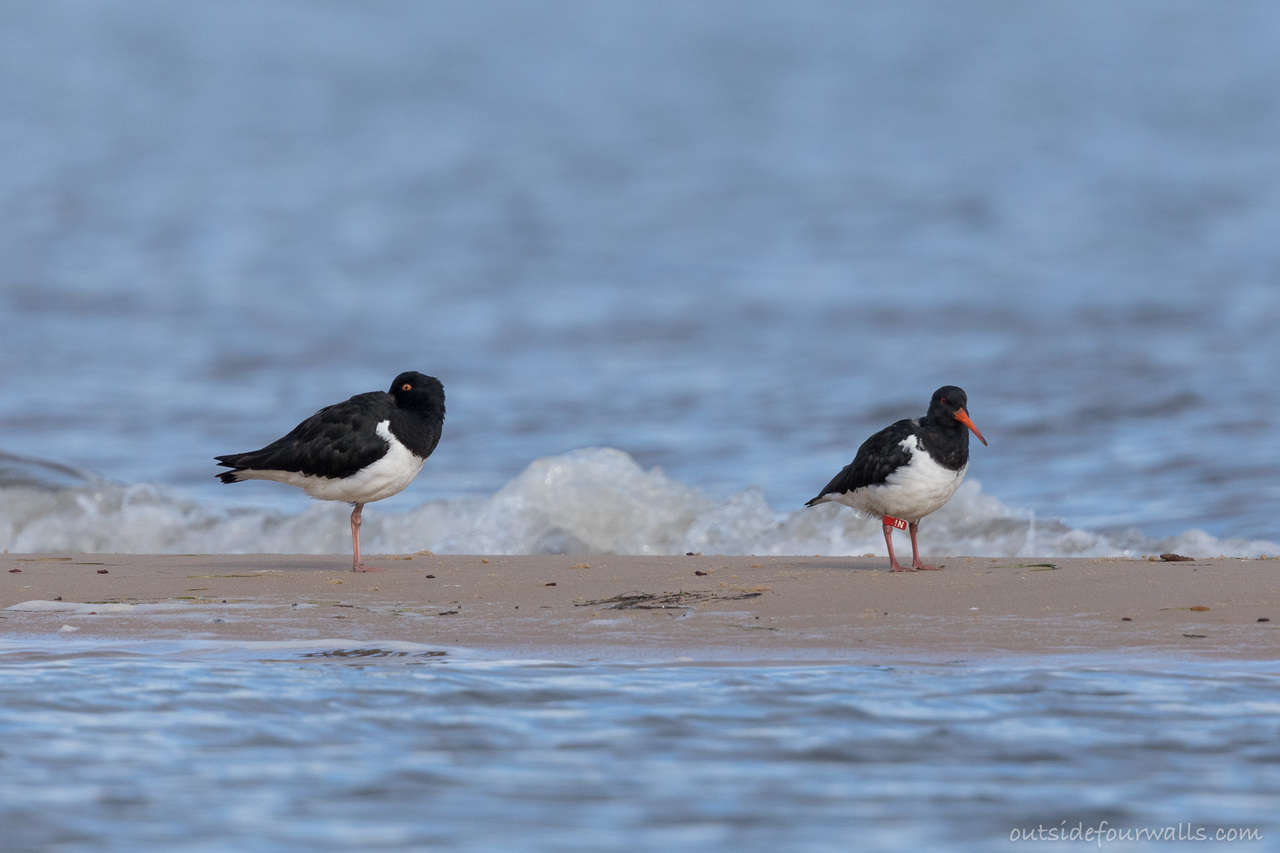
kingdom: Animalia
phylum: Chordata
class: Aves
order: Charadriiformes
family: Haematopodidae
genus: Haematopus
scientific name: Haematopus finschi
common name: South island oystercatcher
